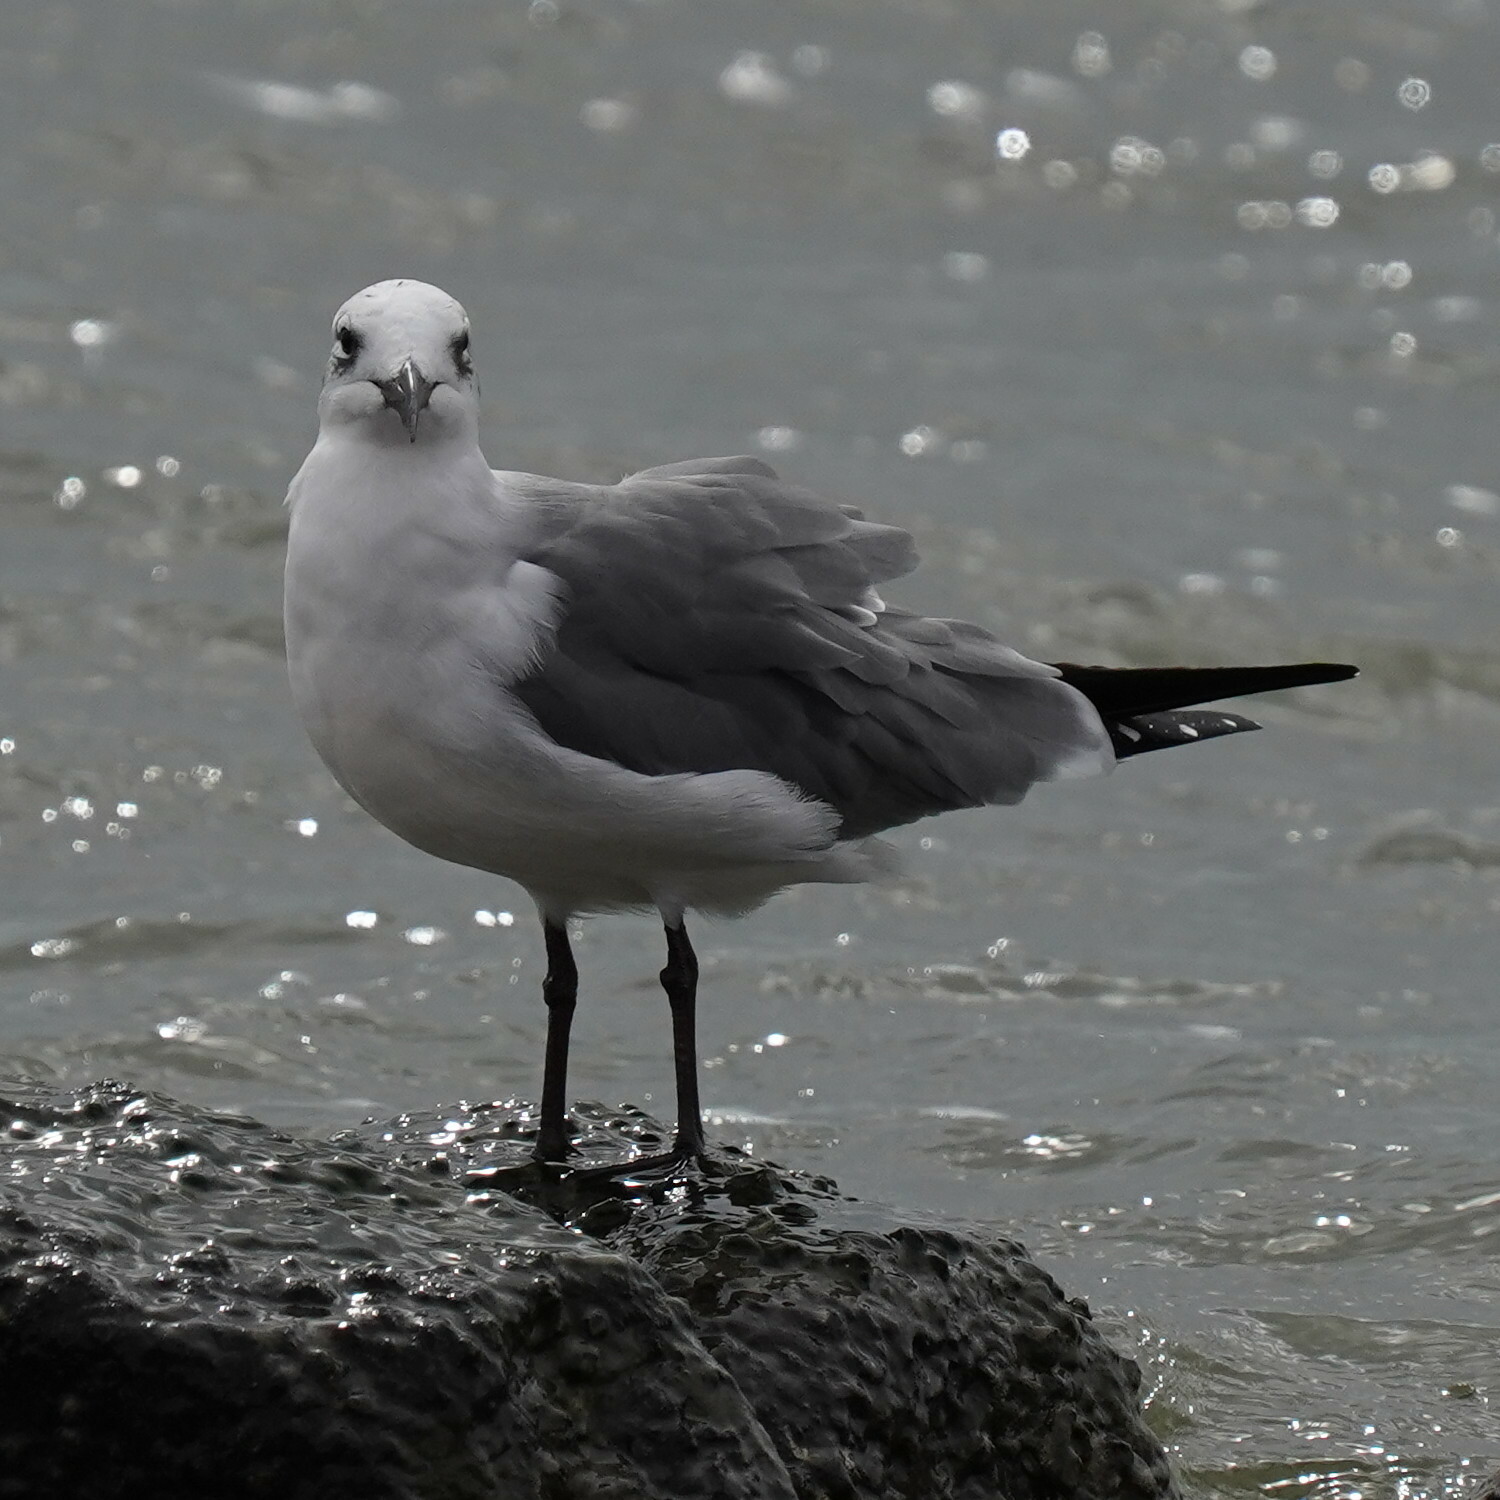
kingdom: Animalia
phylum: Chordata
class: Aves
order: Charadriiformes
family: Laridae
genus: Leucophaeus
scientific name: Leucophaeus atricilla
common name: Laughing gull
